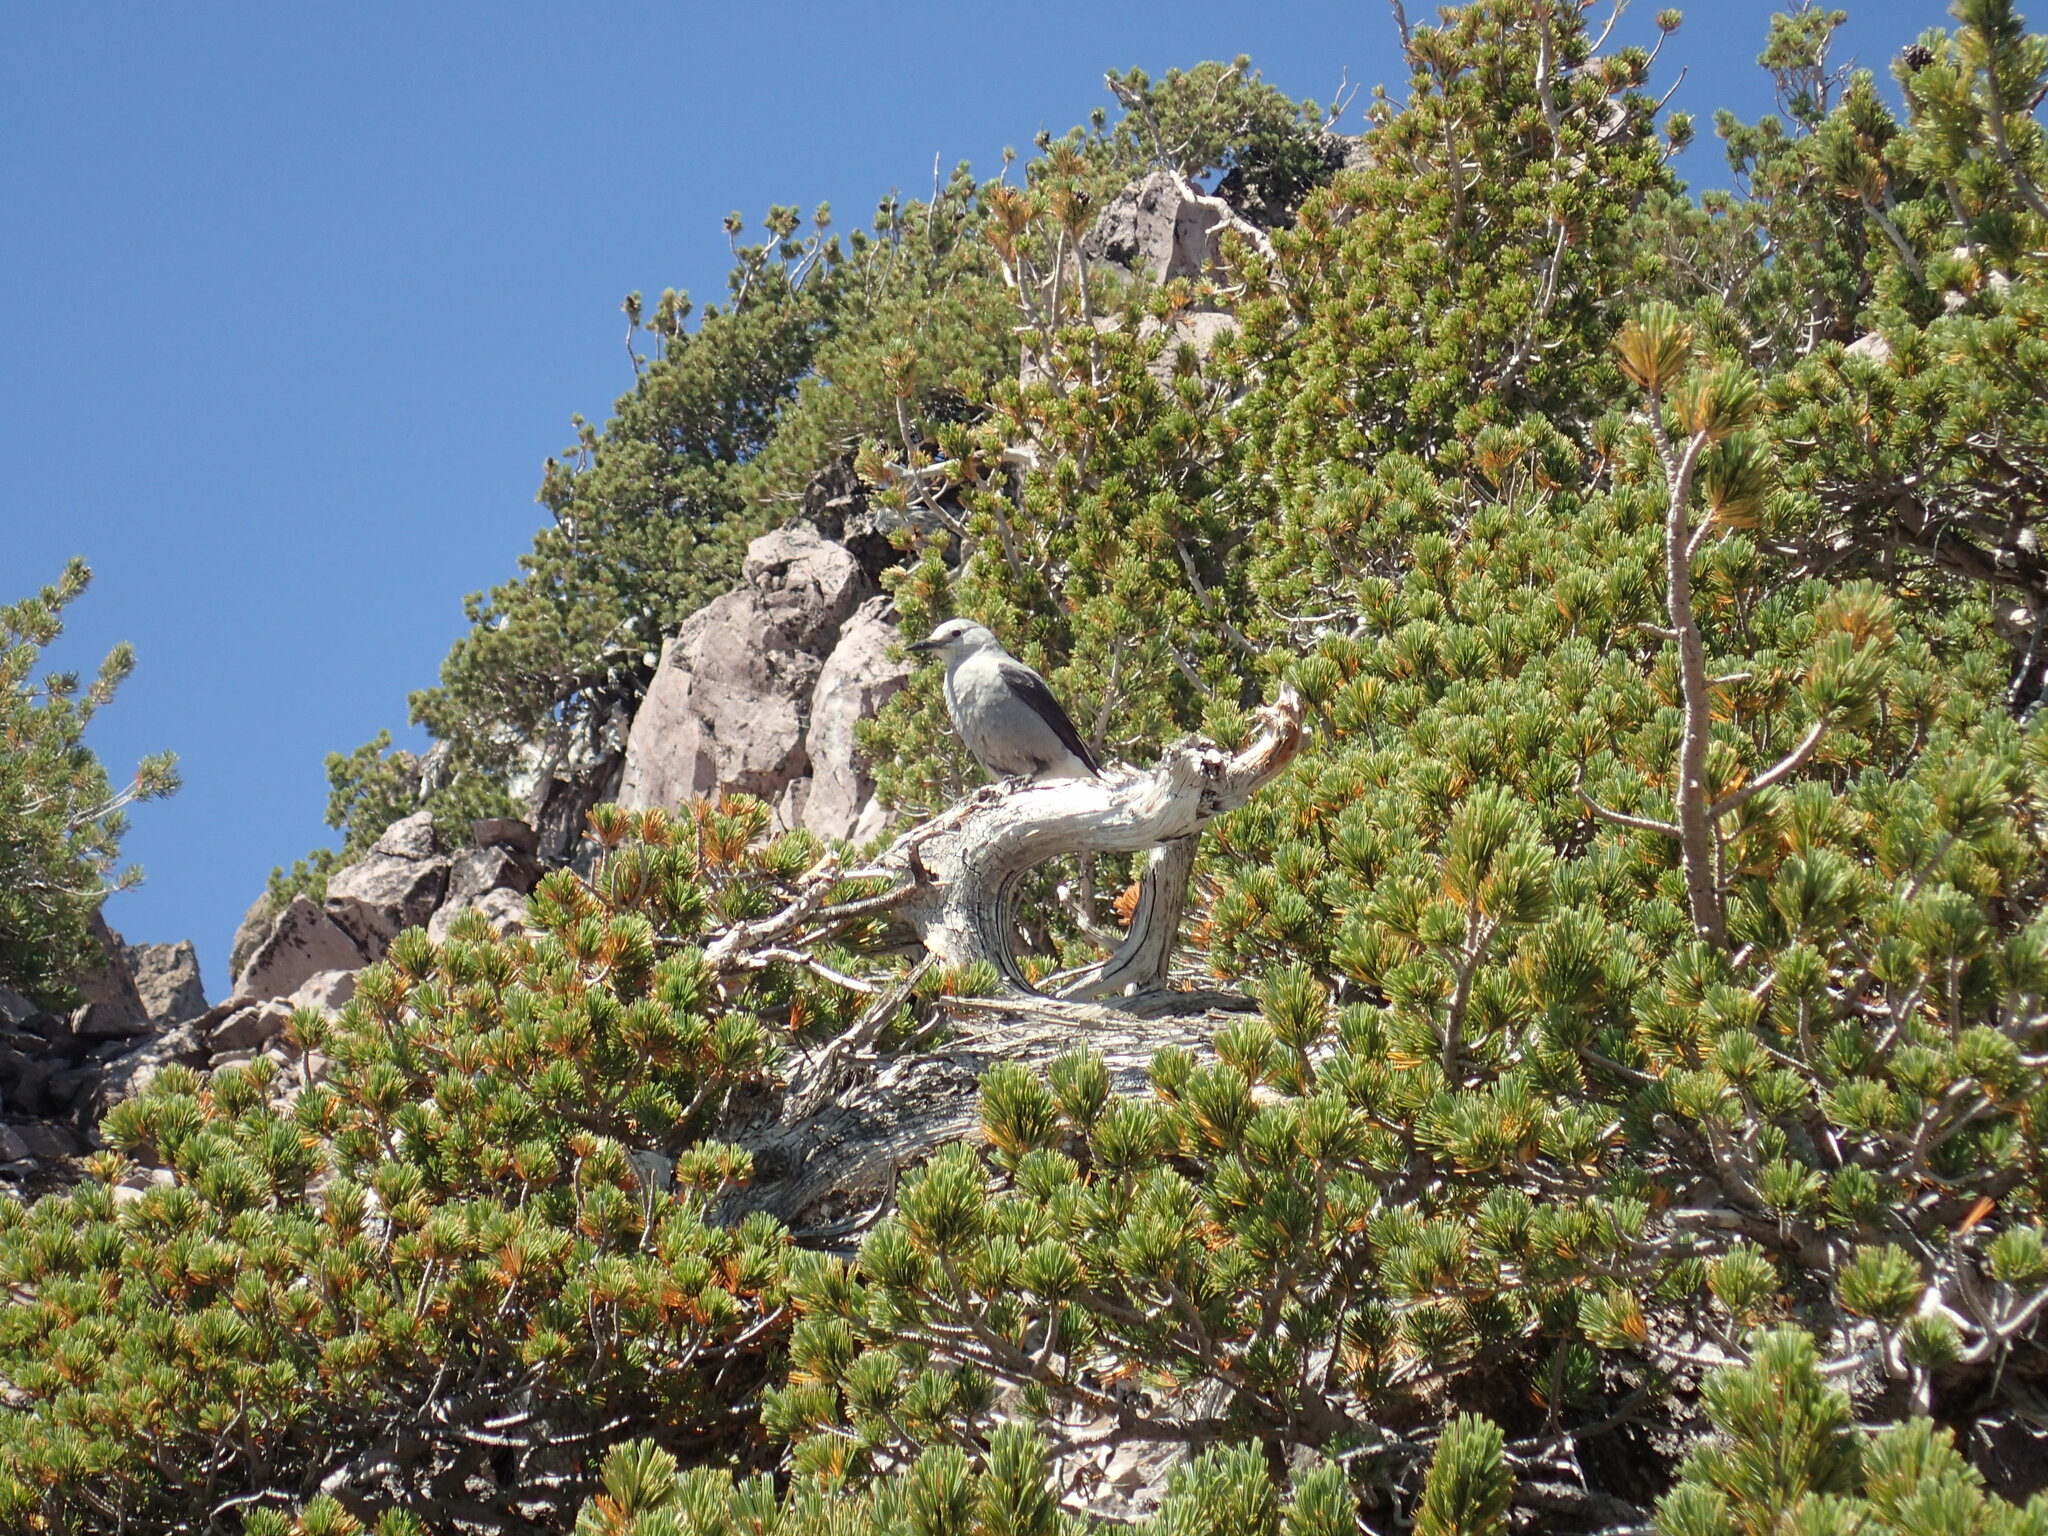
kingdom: Animalia
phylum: Chordata
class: Aves
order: Passeriformes
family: Corvidae
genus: Nucifraga
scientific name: Nucifraga columbiana
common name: Clark's nutcracker
